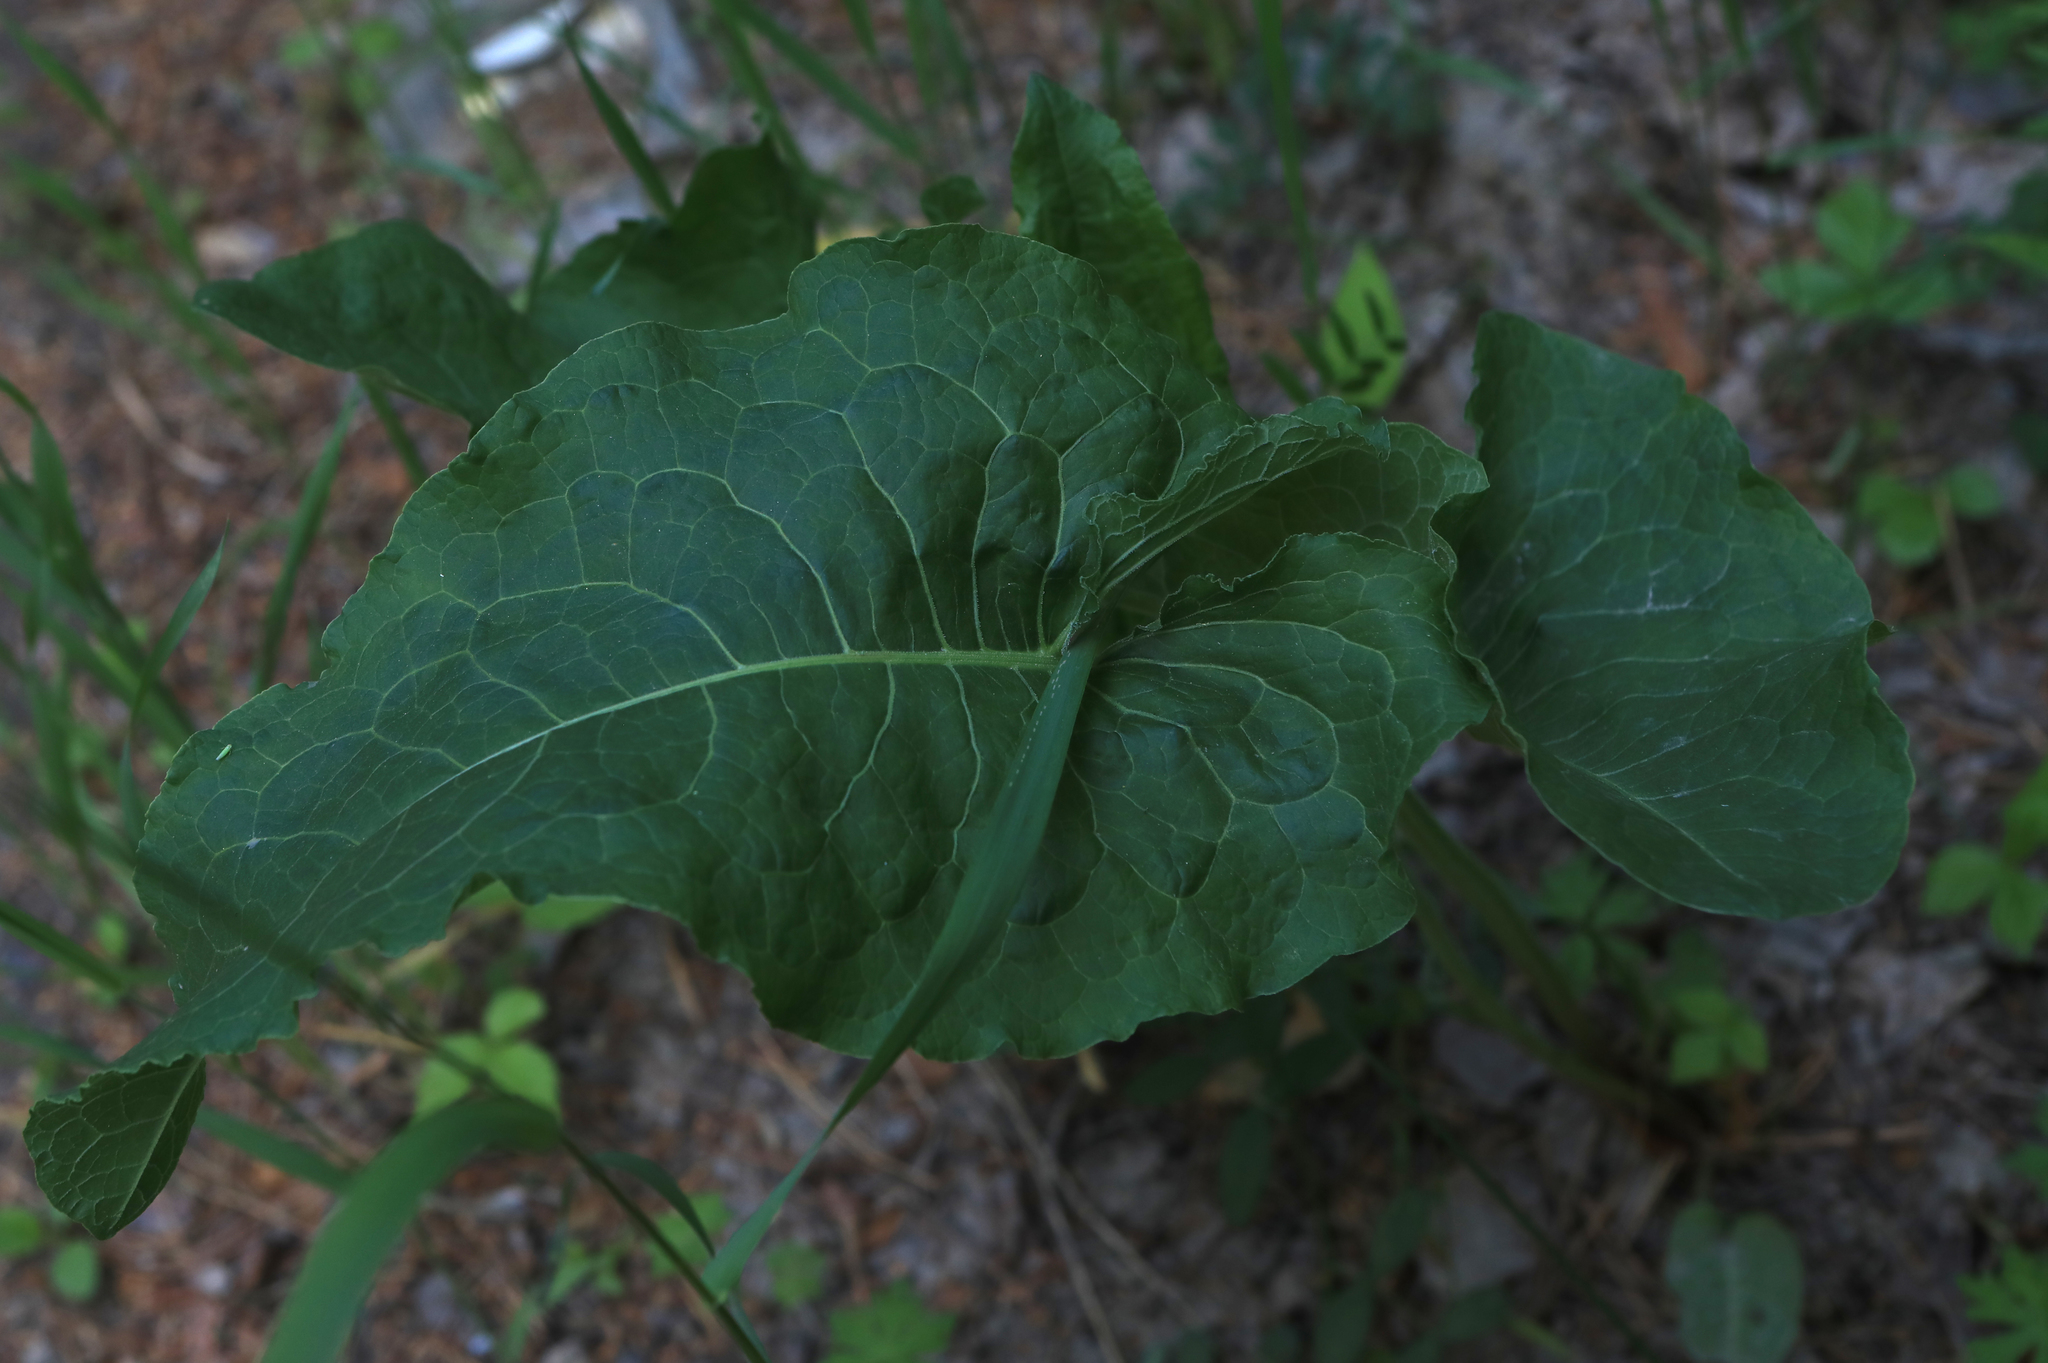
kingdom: Plantae
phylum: Tracheophyta
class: Magnoliopsida
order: Caryophyllales
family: Polygonaceae
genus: Rumex
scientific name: Rumex confertus
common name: Russian dock
